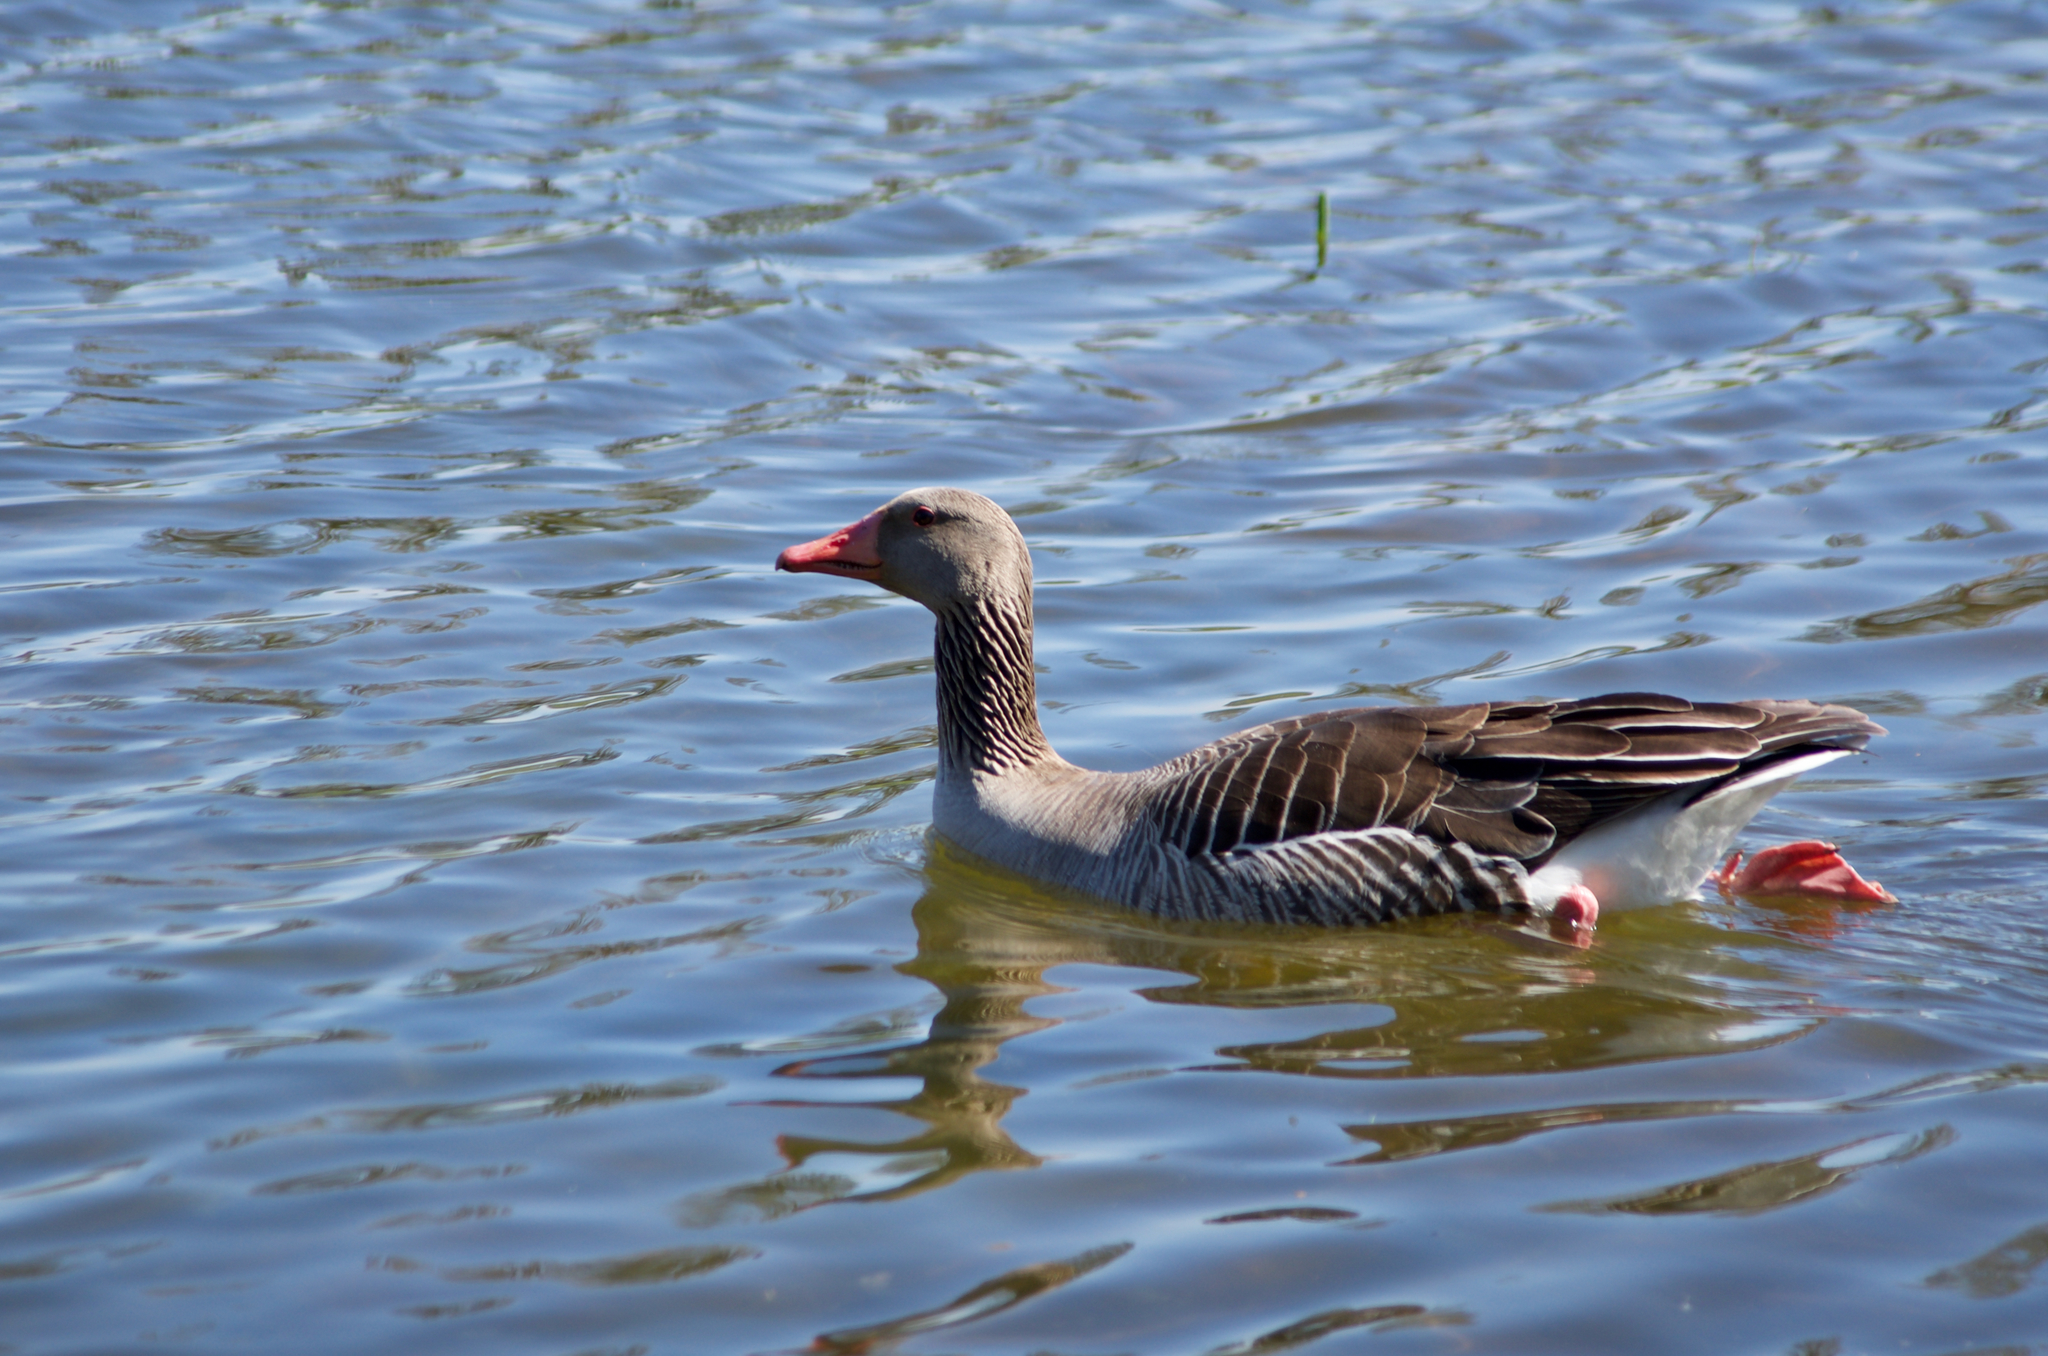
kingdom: Animalia
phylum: Chordata
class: Aves
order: Anseriformes
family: Anatidae
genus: Anser
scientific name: Anser anser
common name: Greylag goose
